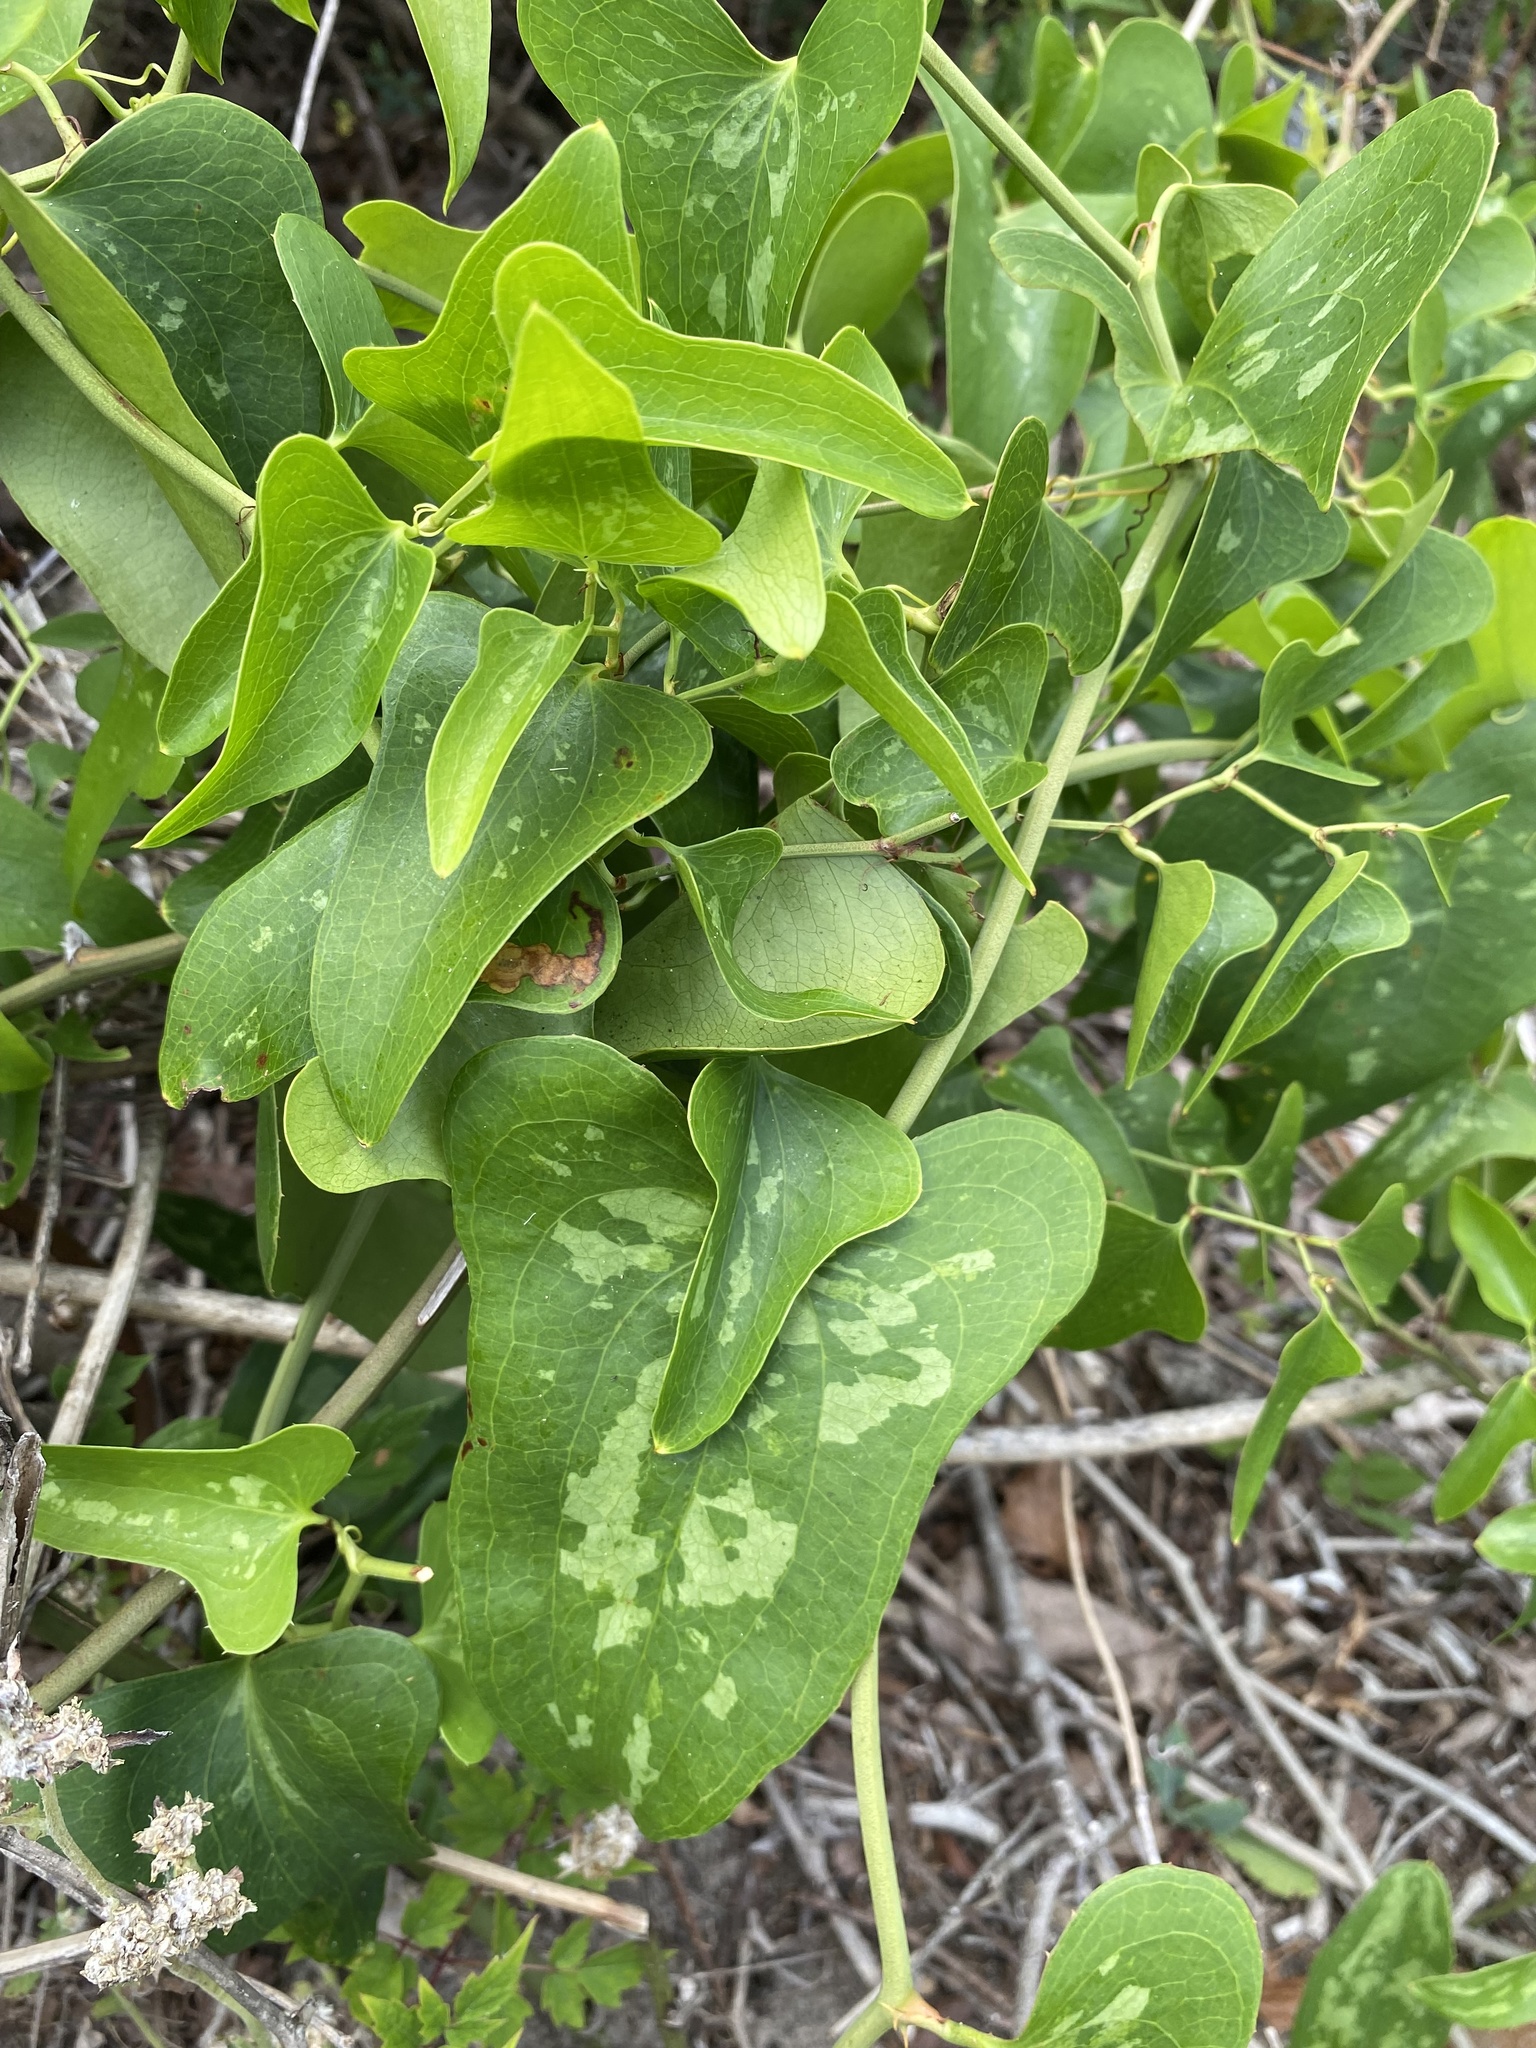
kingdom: Plantae
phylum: Tracheophyta
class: Liliopsida
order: Liliales
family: Smilacaceae
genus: Smilax
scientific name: Smilax bona-nox
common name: Catbrier
